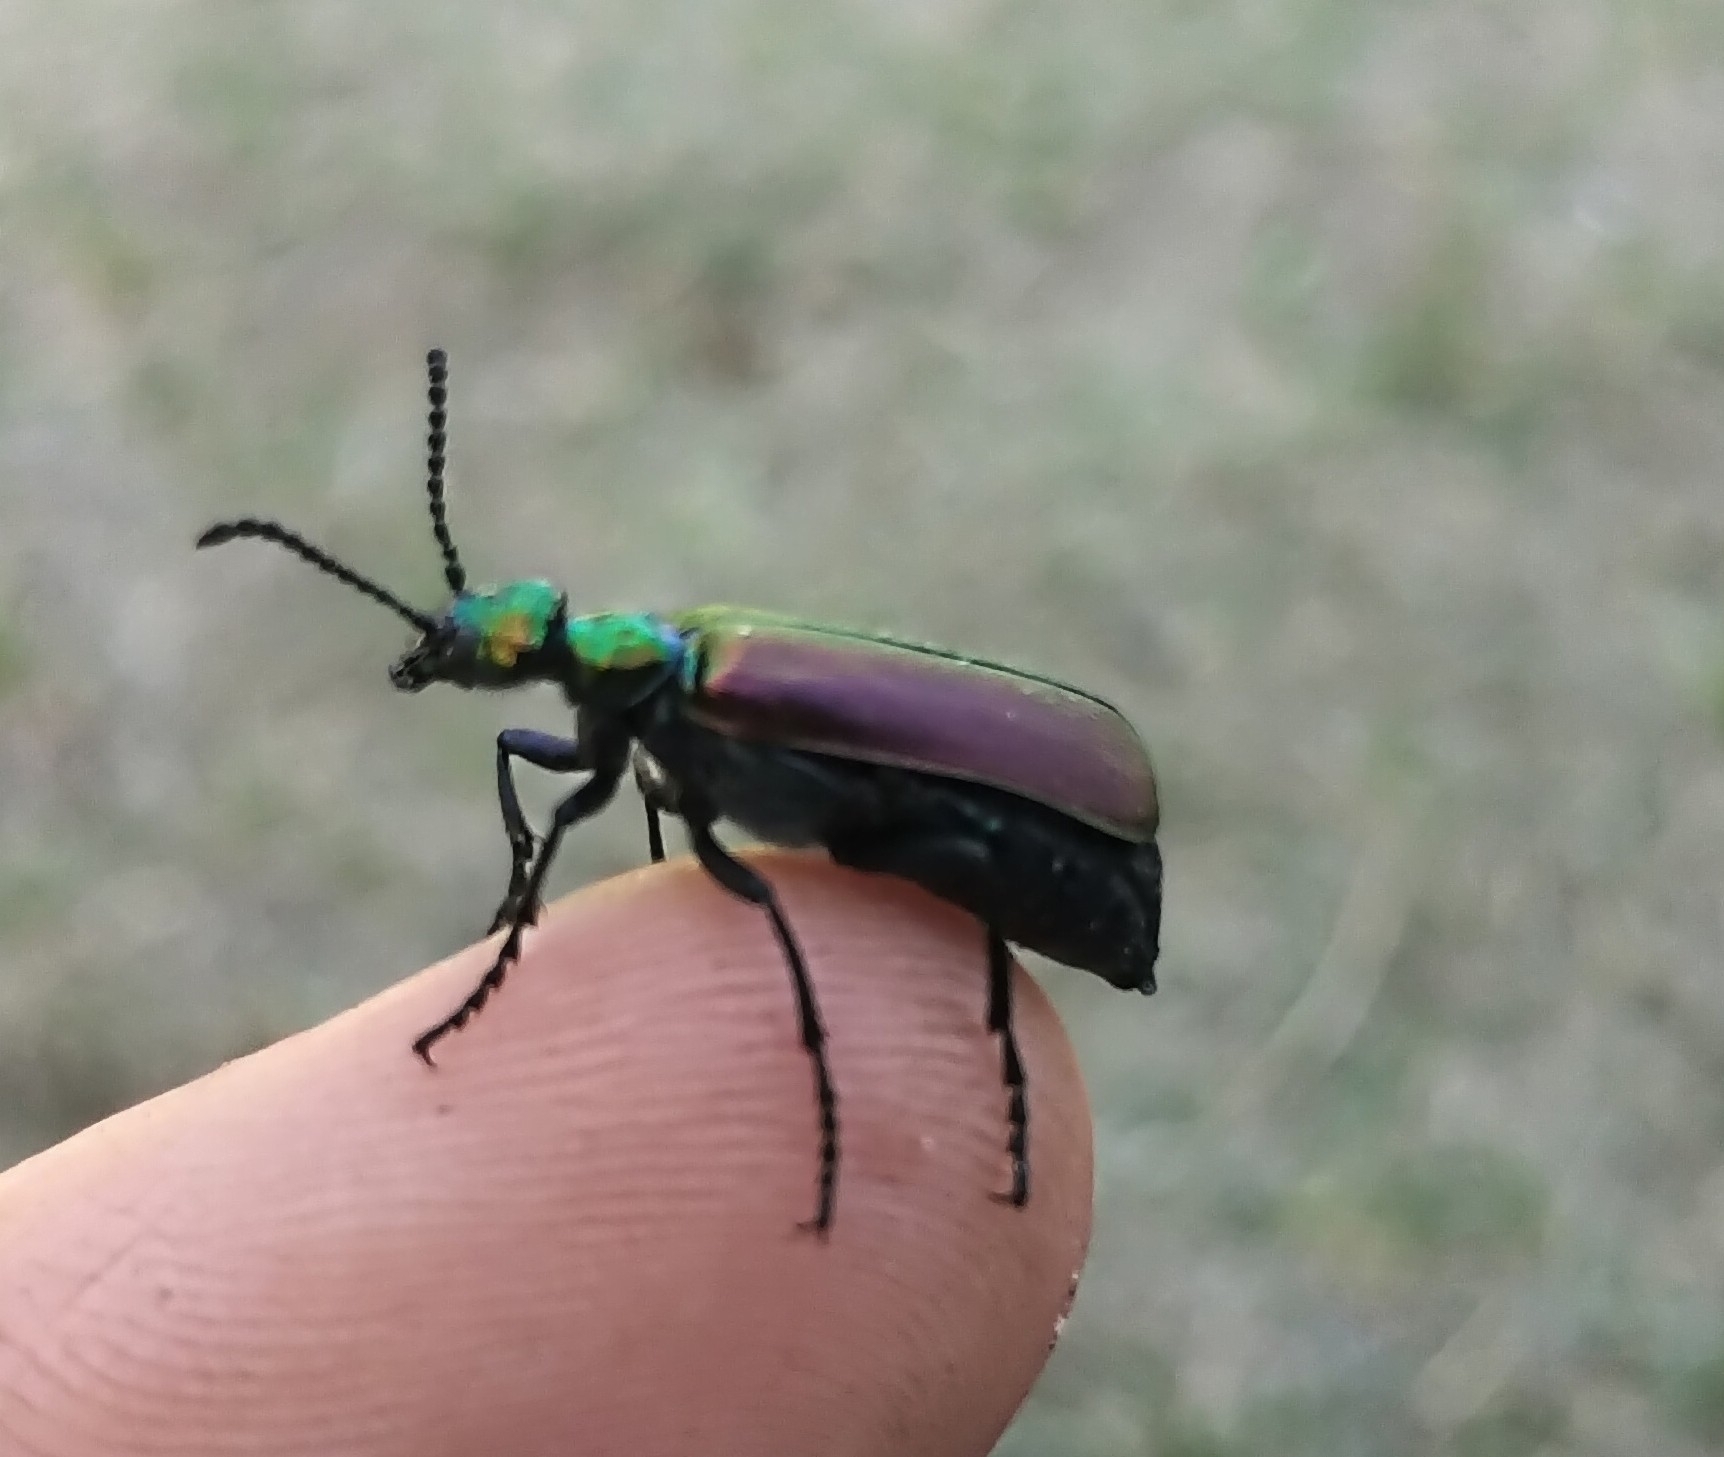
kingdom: Animalia
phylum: Arthropoda
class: Insecta
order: Coleoptera
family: Meloidae
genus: Lytta
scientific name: Lytta nuttallii
